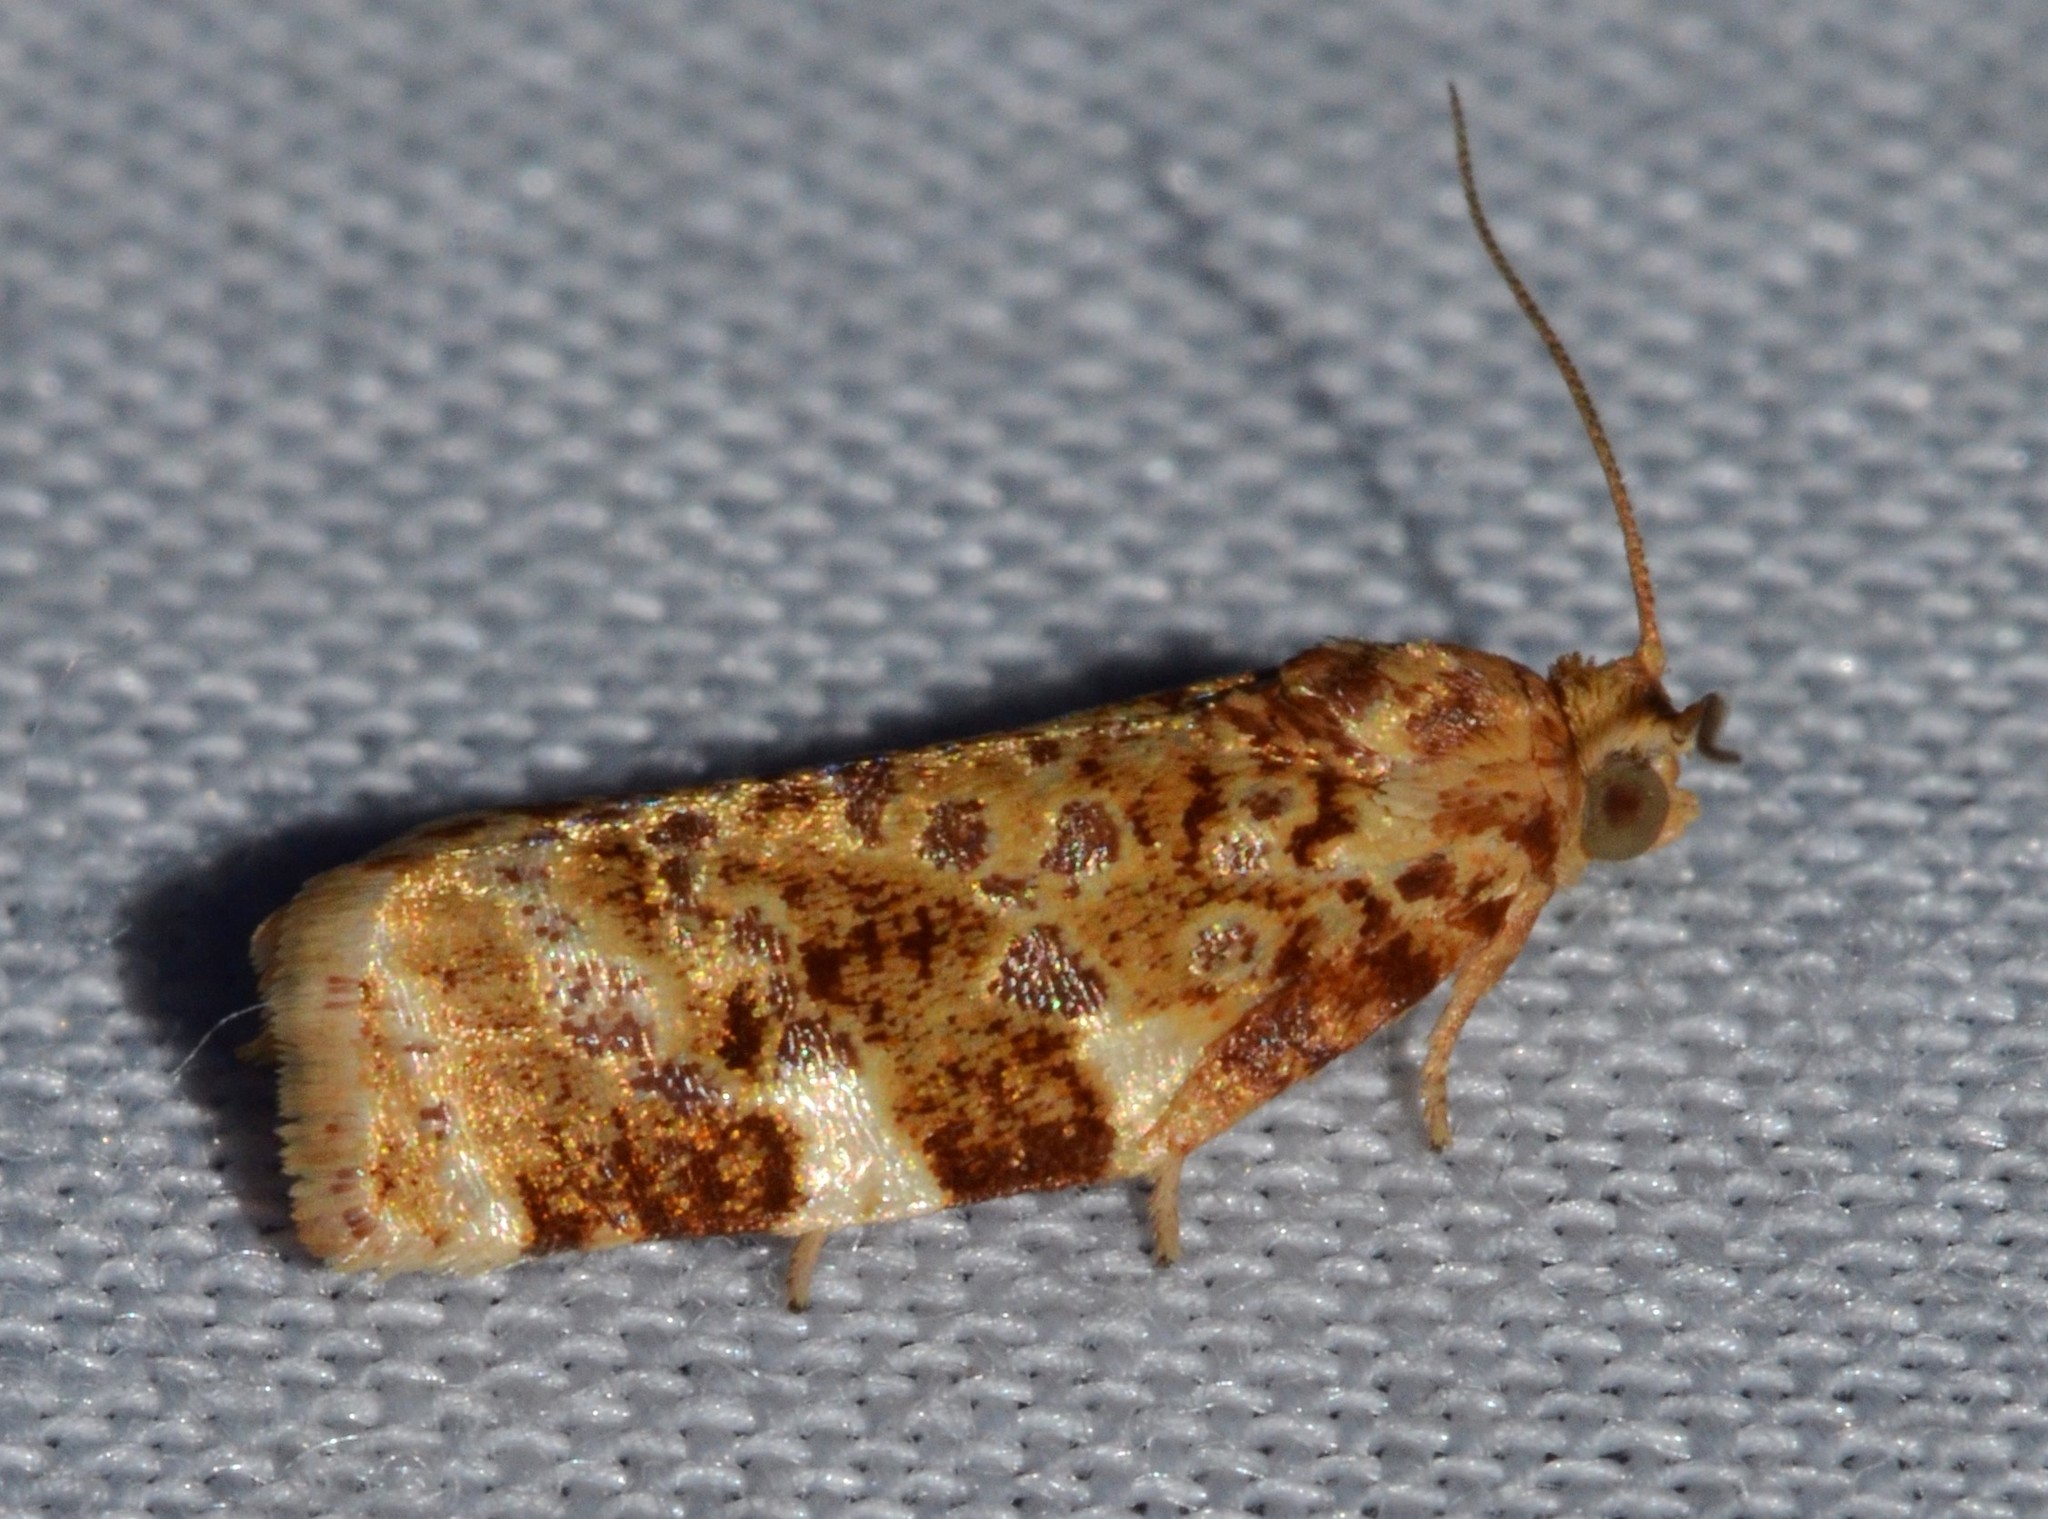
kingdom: Animalia
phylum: Arthropoda
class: Insecta
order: Lepidoptera
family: Tortricidae
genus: Archips
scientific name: Archips argyrospila
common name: Fruit-tree leafroller moth
